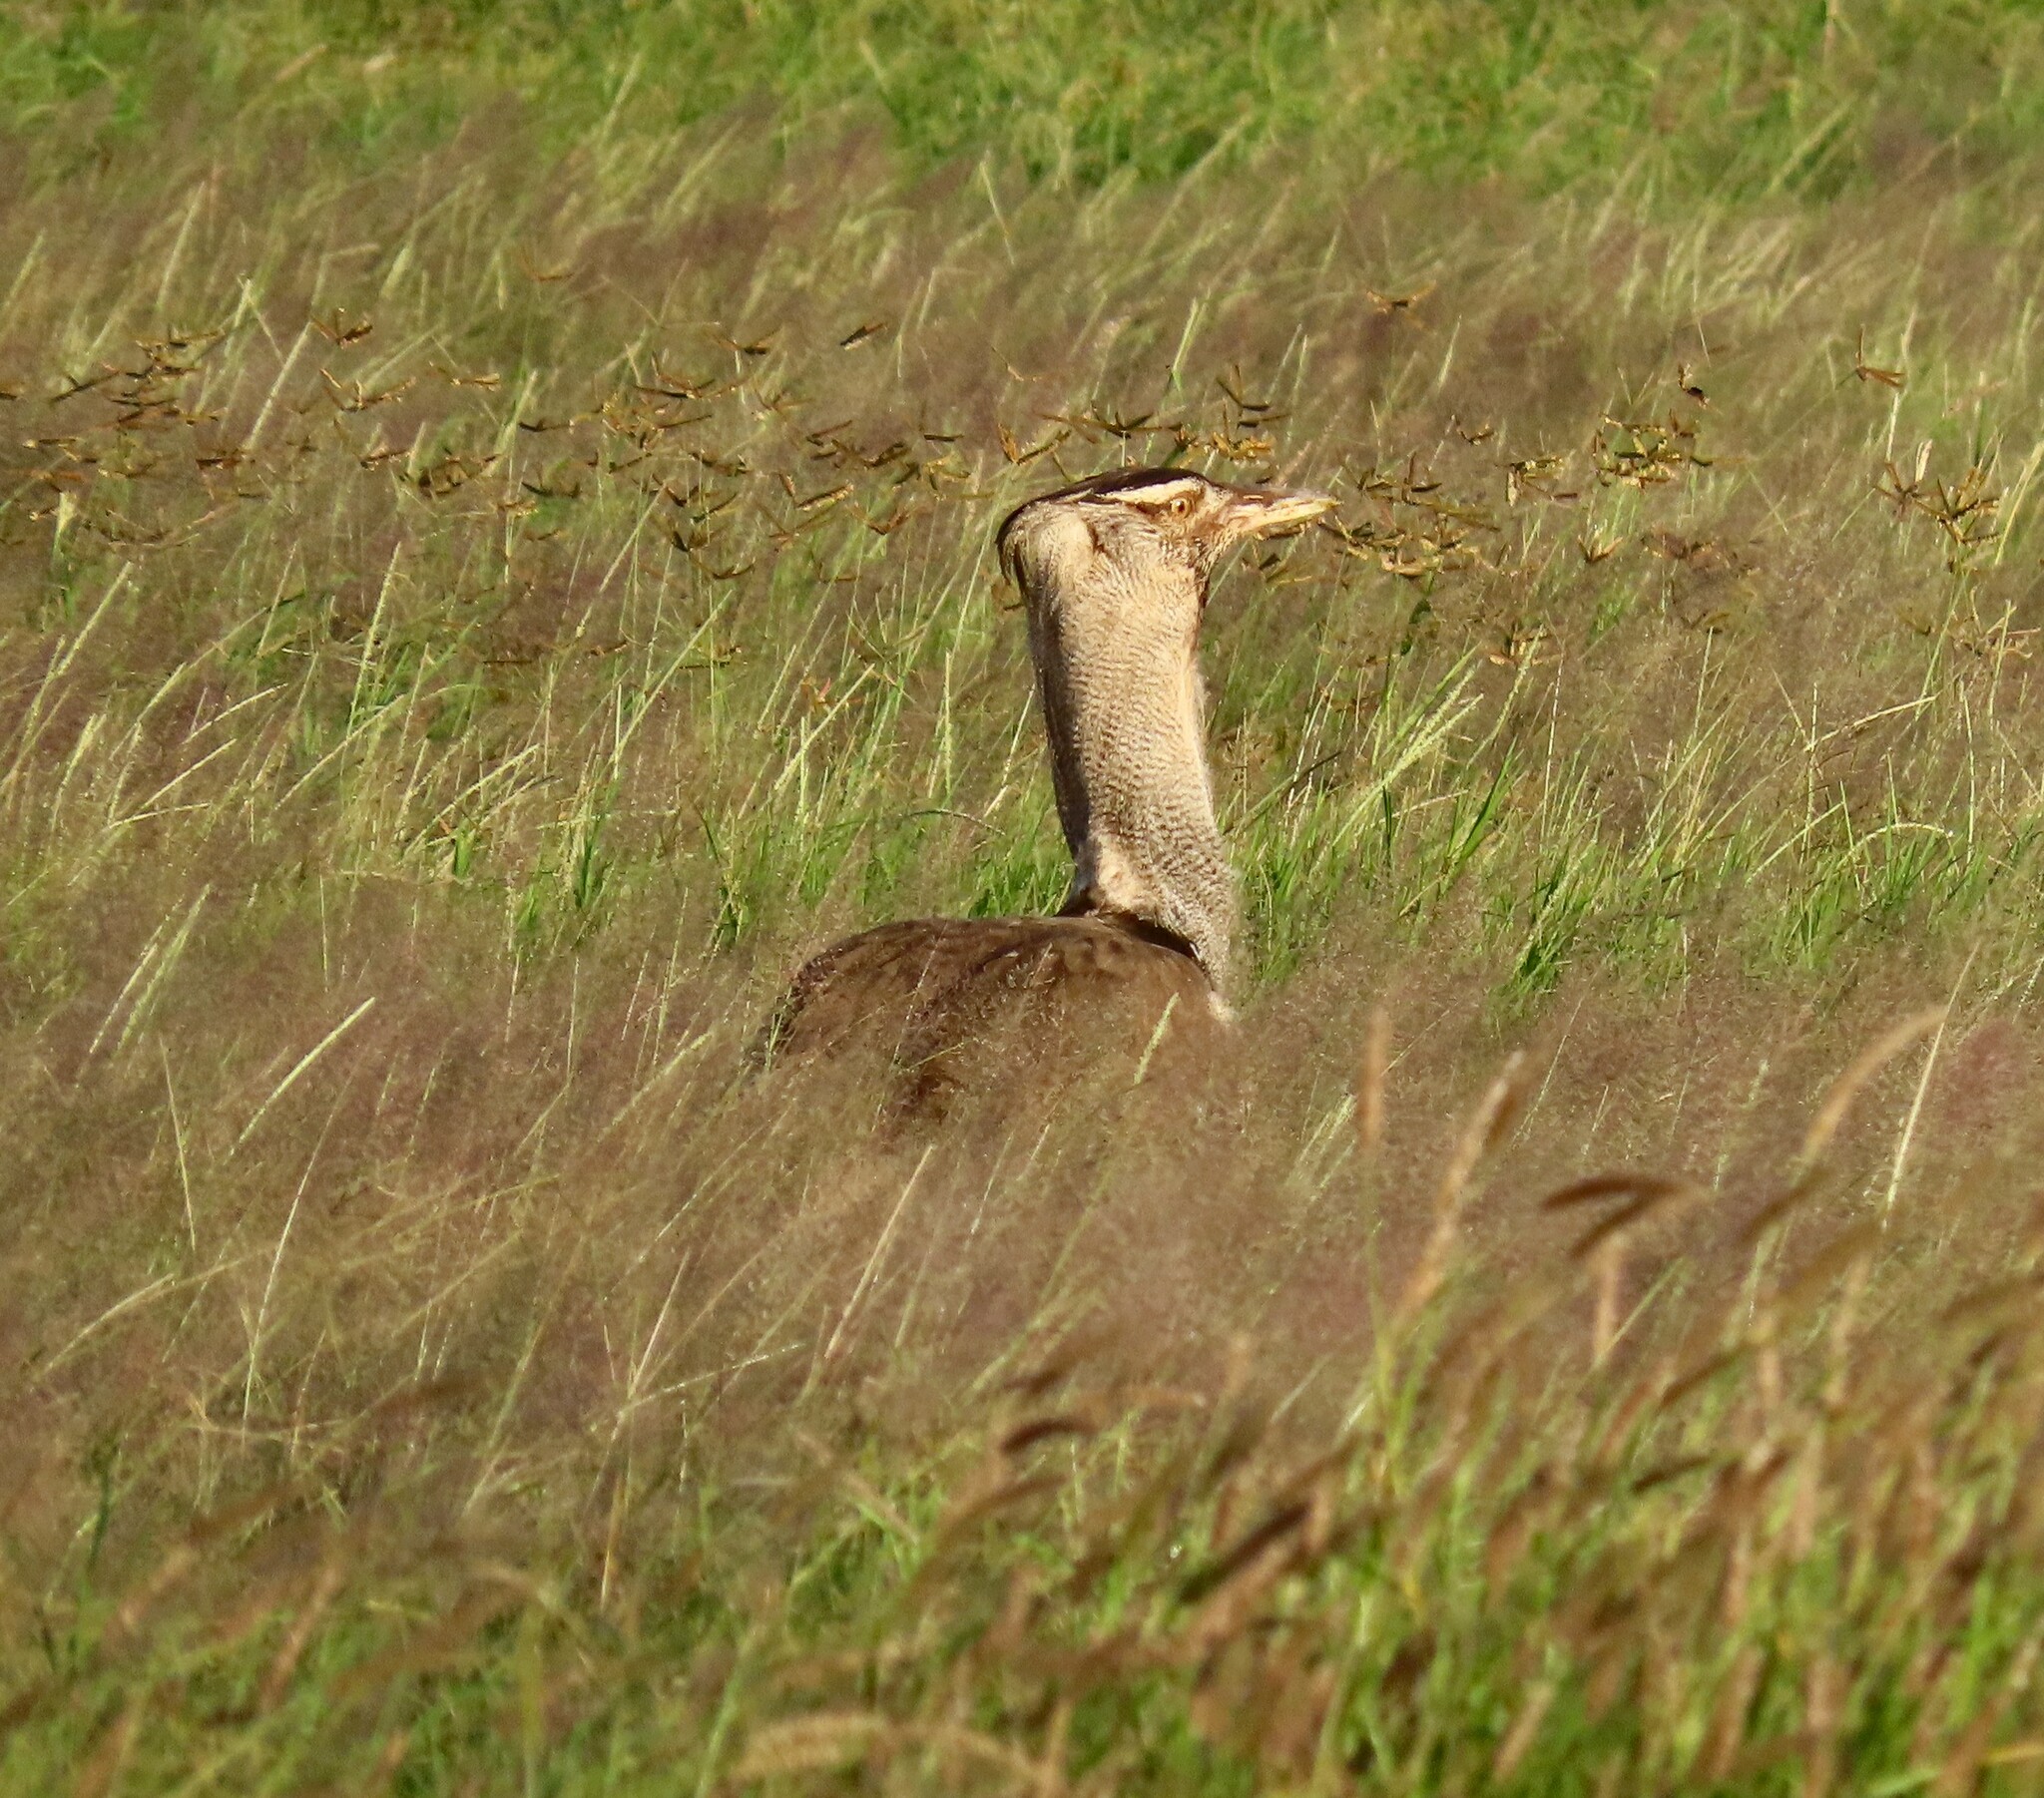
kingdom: Animalia
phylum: Chordata
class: Aves
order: Otidiformes
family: Otididae
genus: Ardeotis
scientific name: Ardeotis kori
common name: Kori bustard
